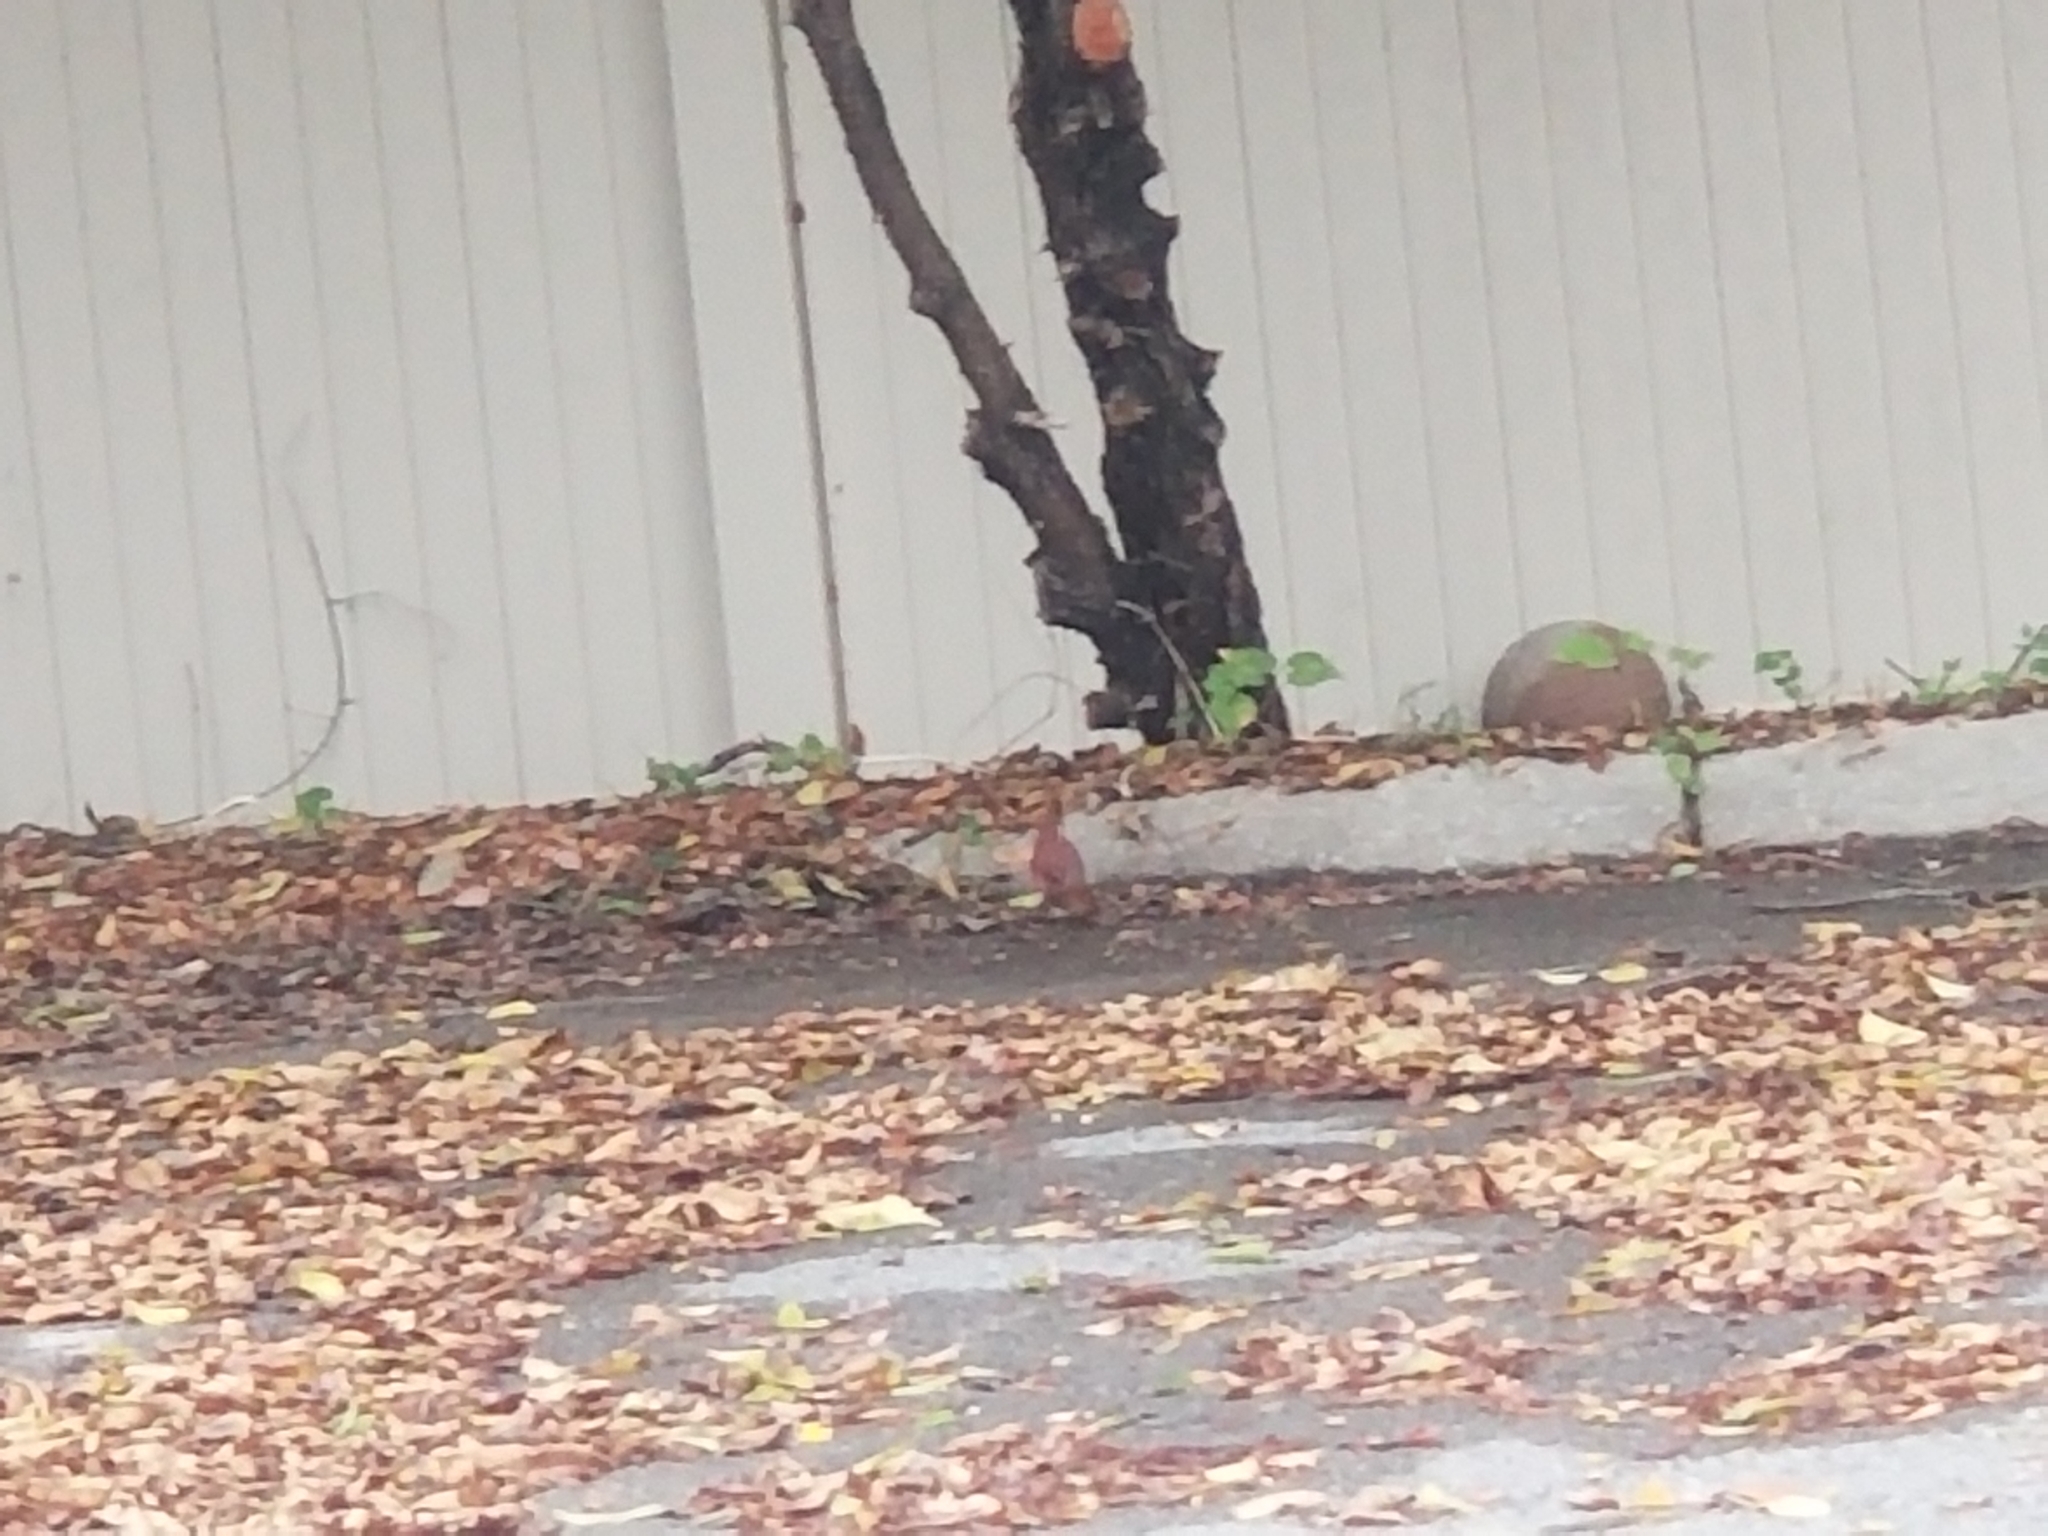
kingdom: Animalia
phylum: Chordata
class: Aves
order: Passeriformes
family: Cardinalidae
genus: Cardinalis
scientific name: Cardinalis cardinalis
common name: Northern cardinal
